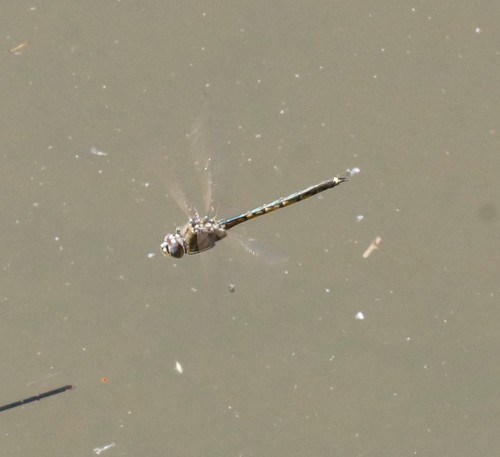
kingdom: Animalia
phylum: Arthropoda
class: Insecta
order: Odonata
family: Corduliidae
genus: Hemicordulia
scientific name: Hemicordulia tau
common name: Tau emerald
